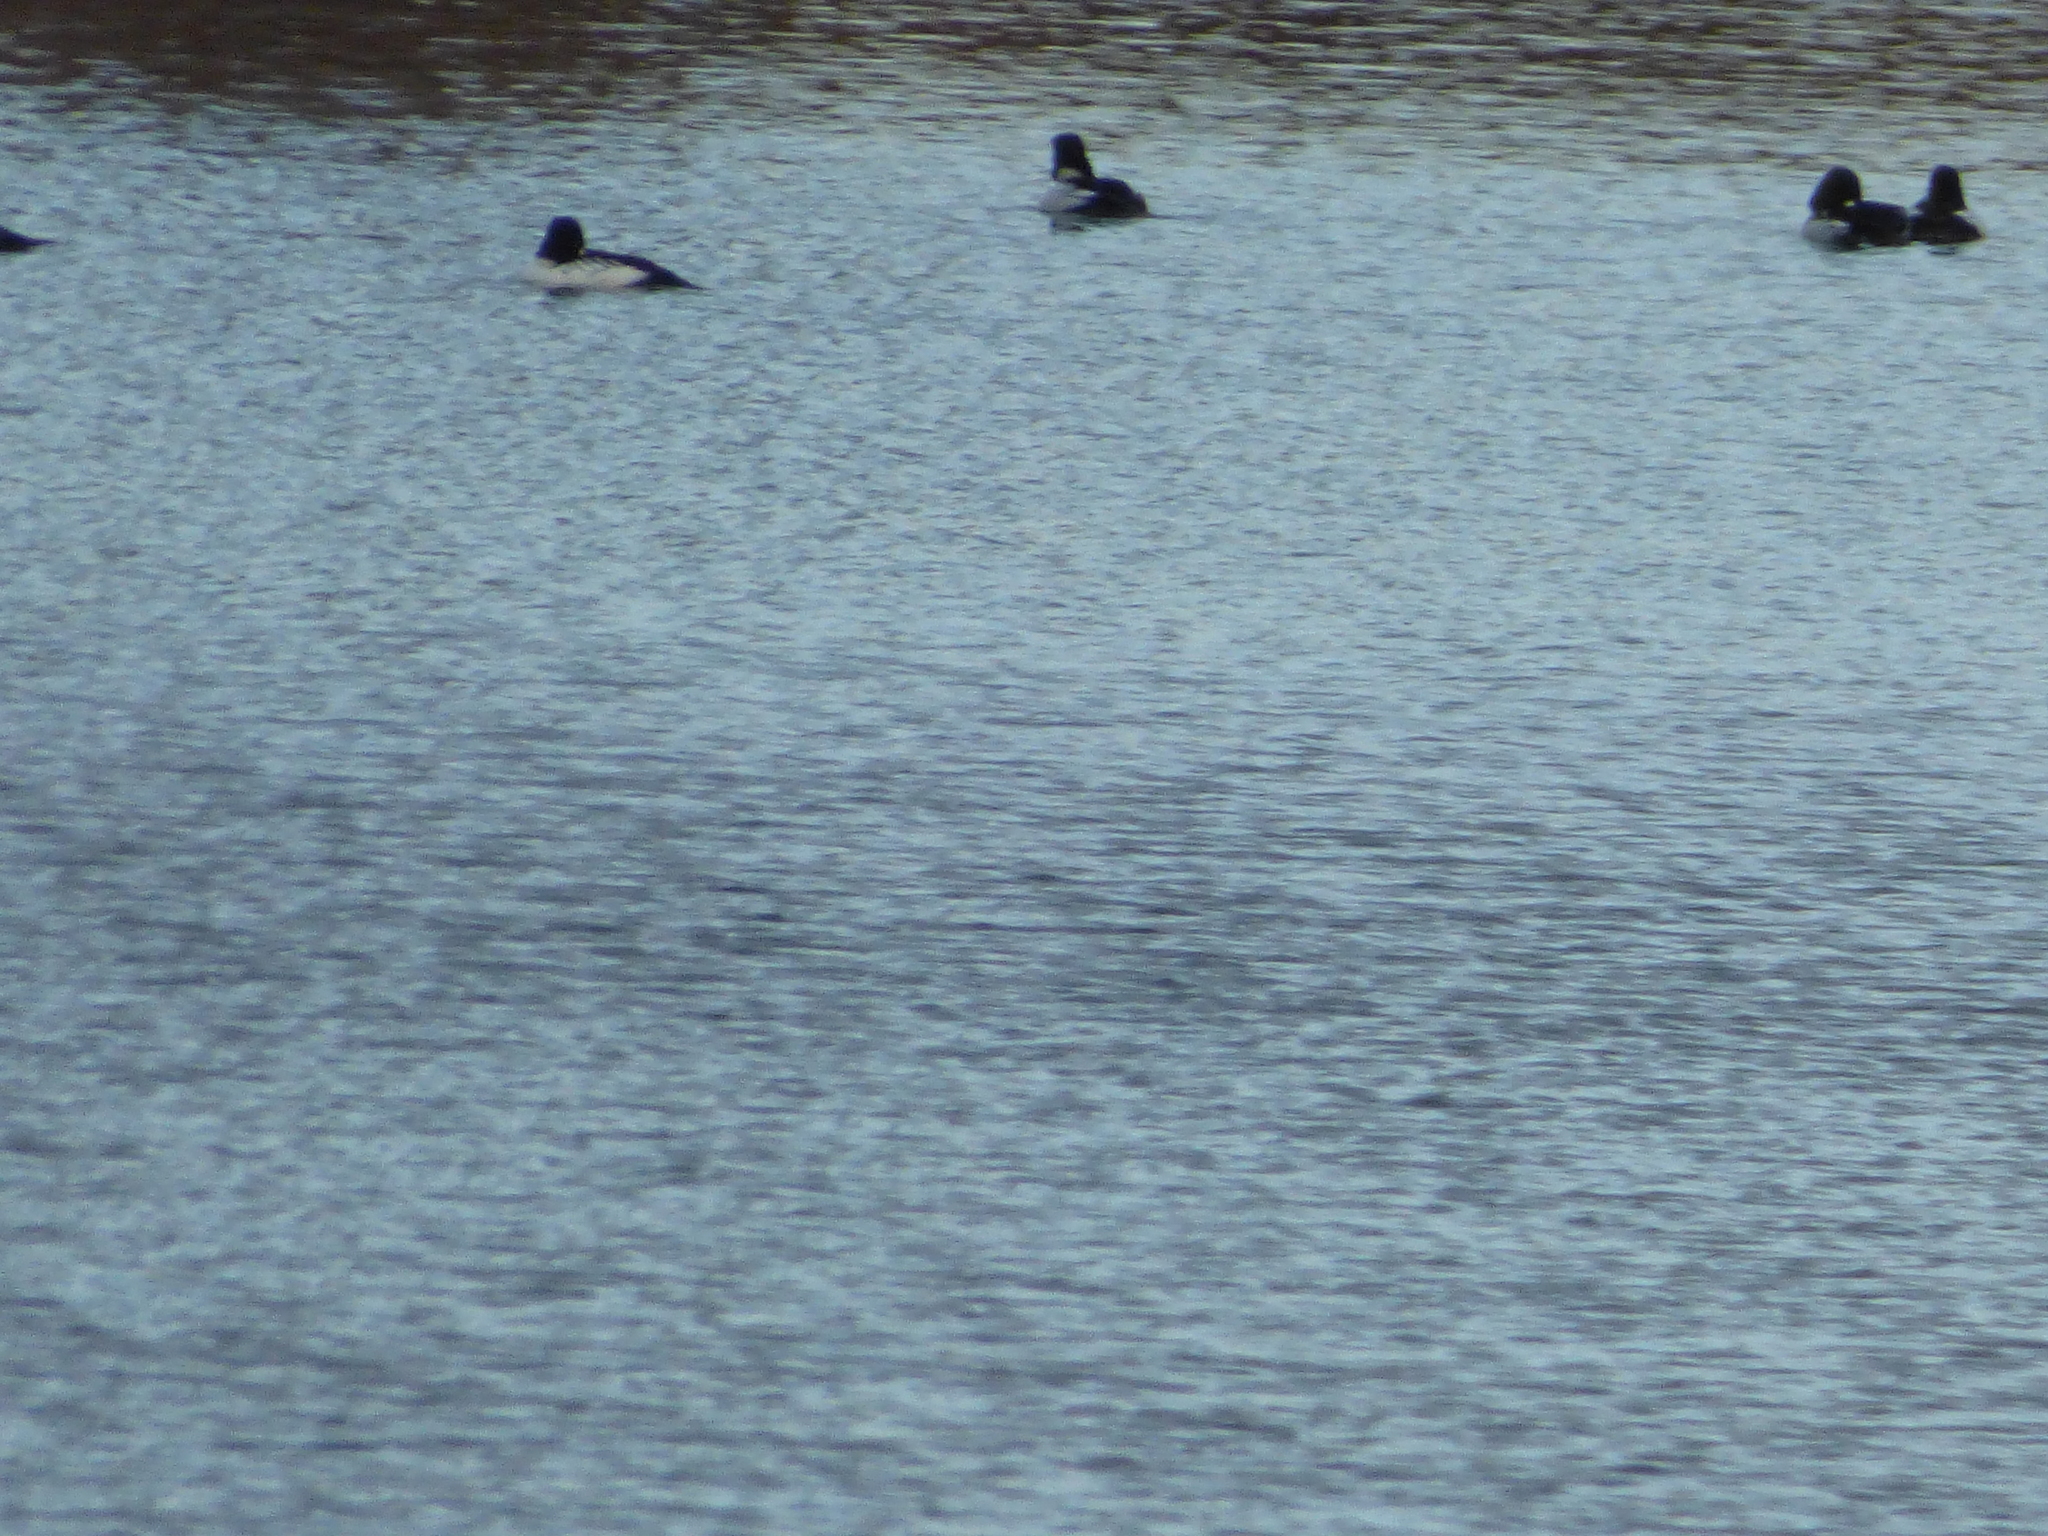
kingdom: Animalia
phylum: Chordata
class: Aves
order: Anseriformes
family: Anatidae
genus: Bucephala
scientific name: Bucephala clangula
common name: Common goldeneye
